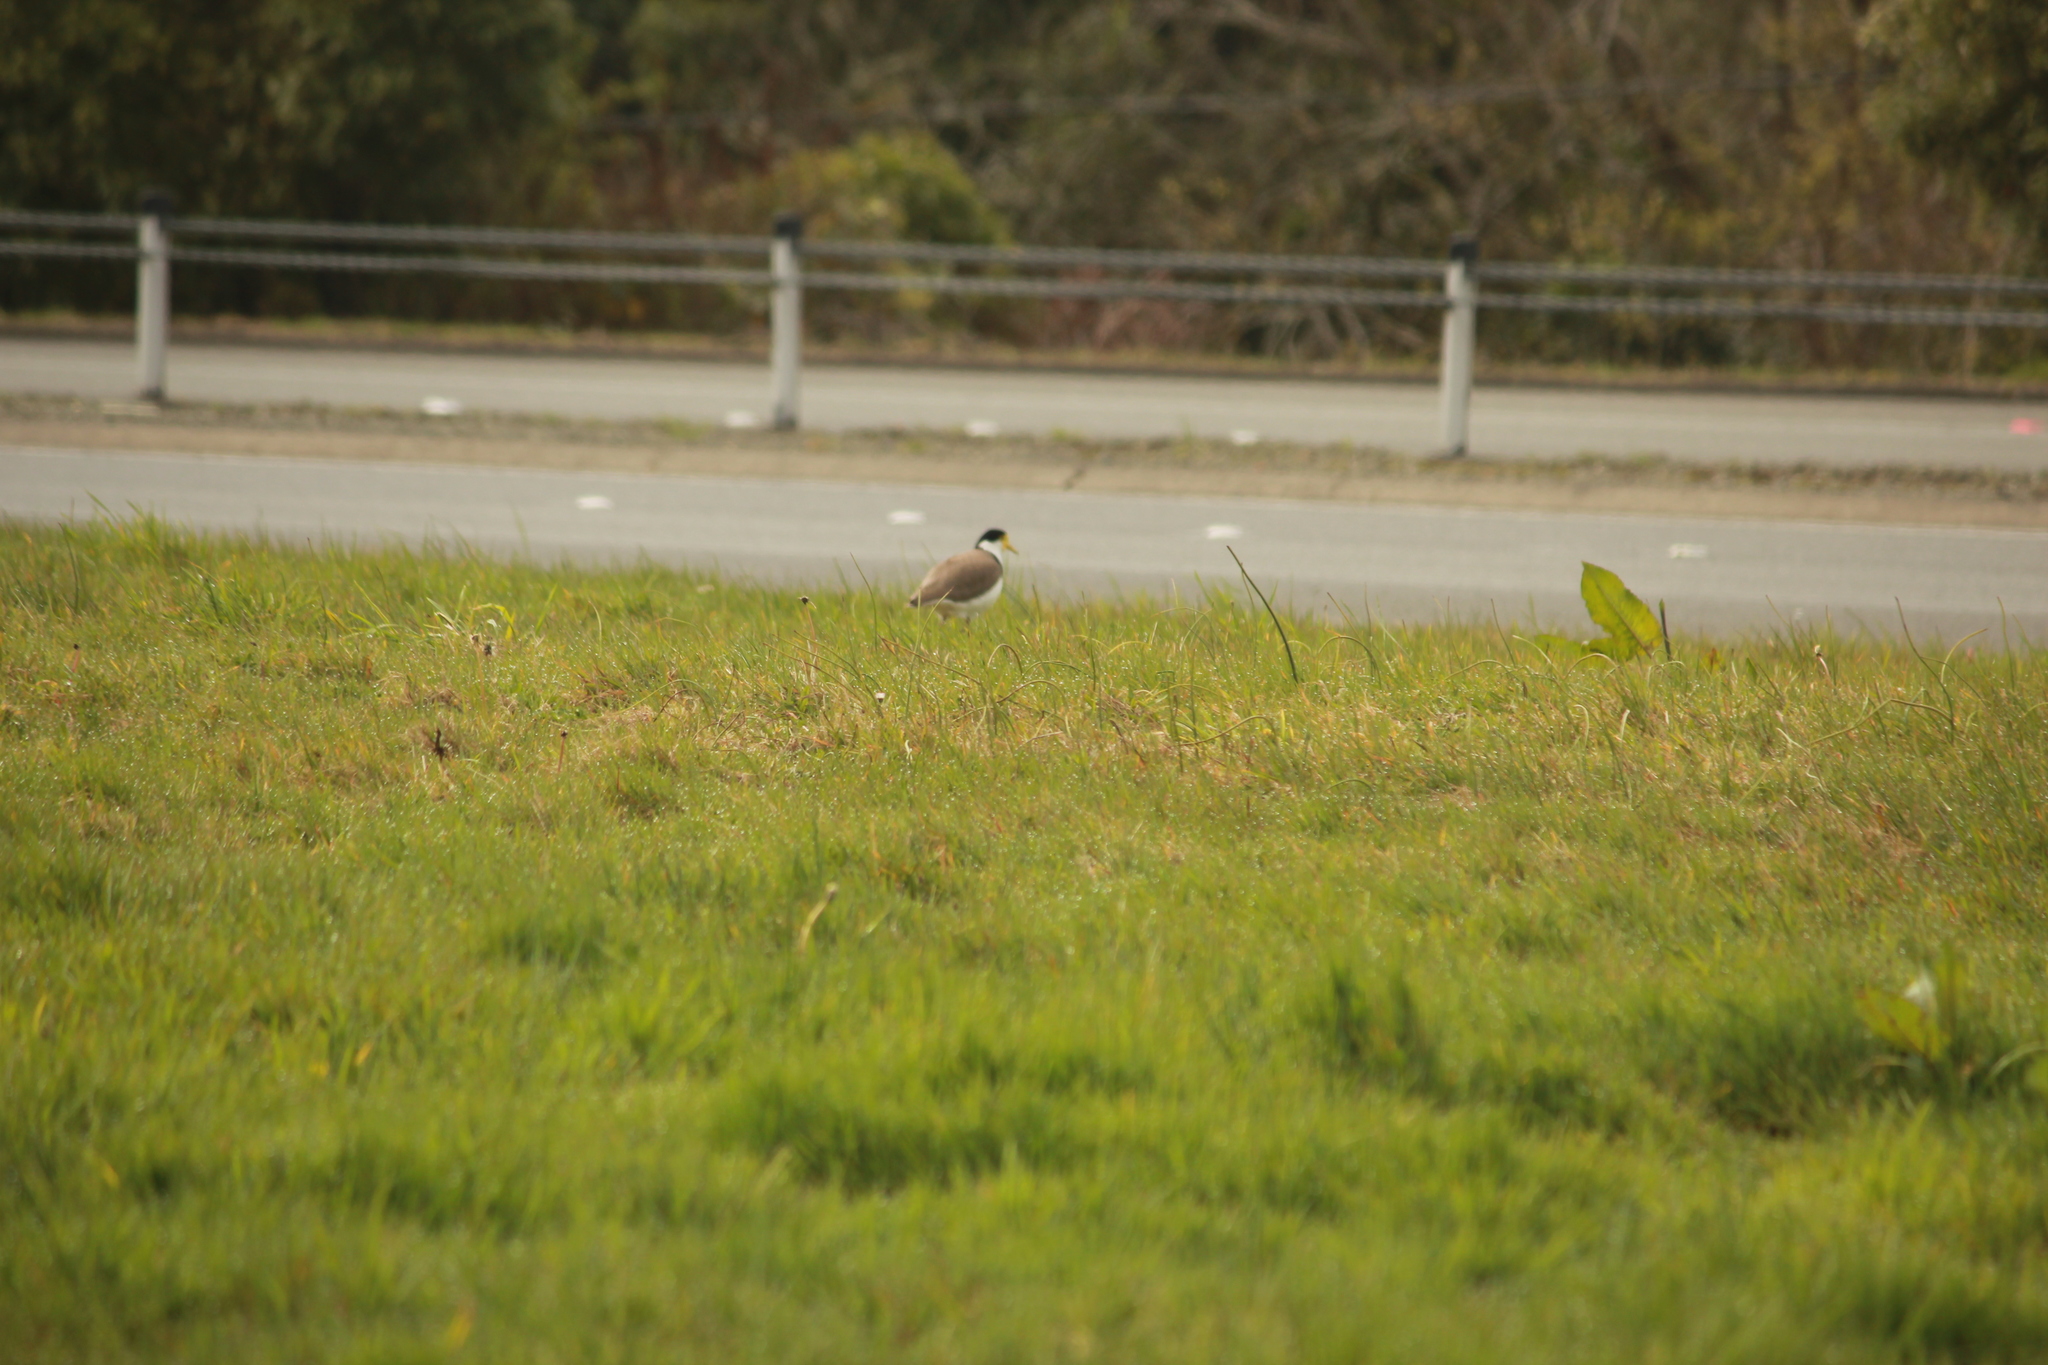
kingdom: Animalia
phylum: Chordata
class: Aves
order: Charadriiformes
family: Charadriidae
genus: Vanellus
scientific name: Vanellus miles
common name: Masked lapwing
